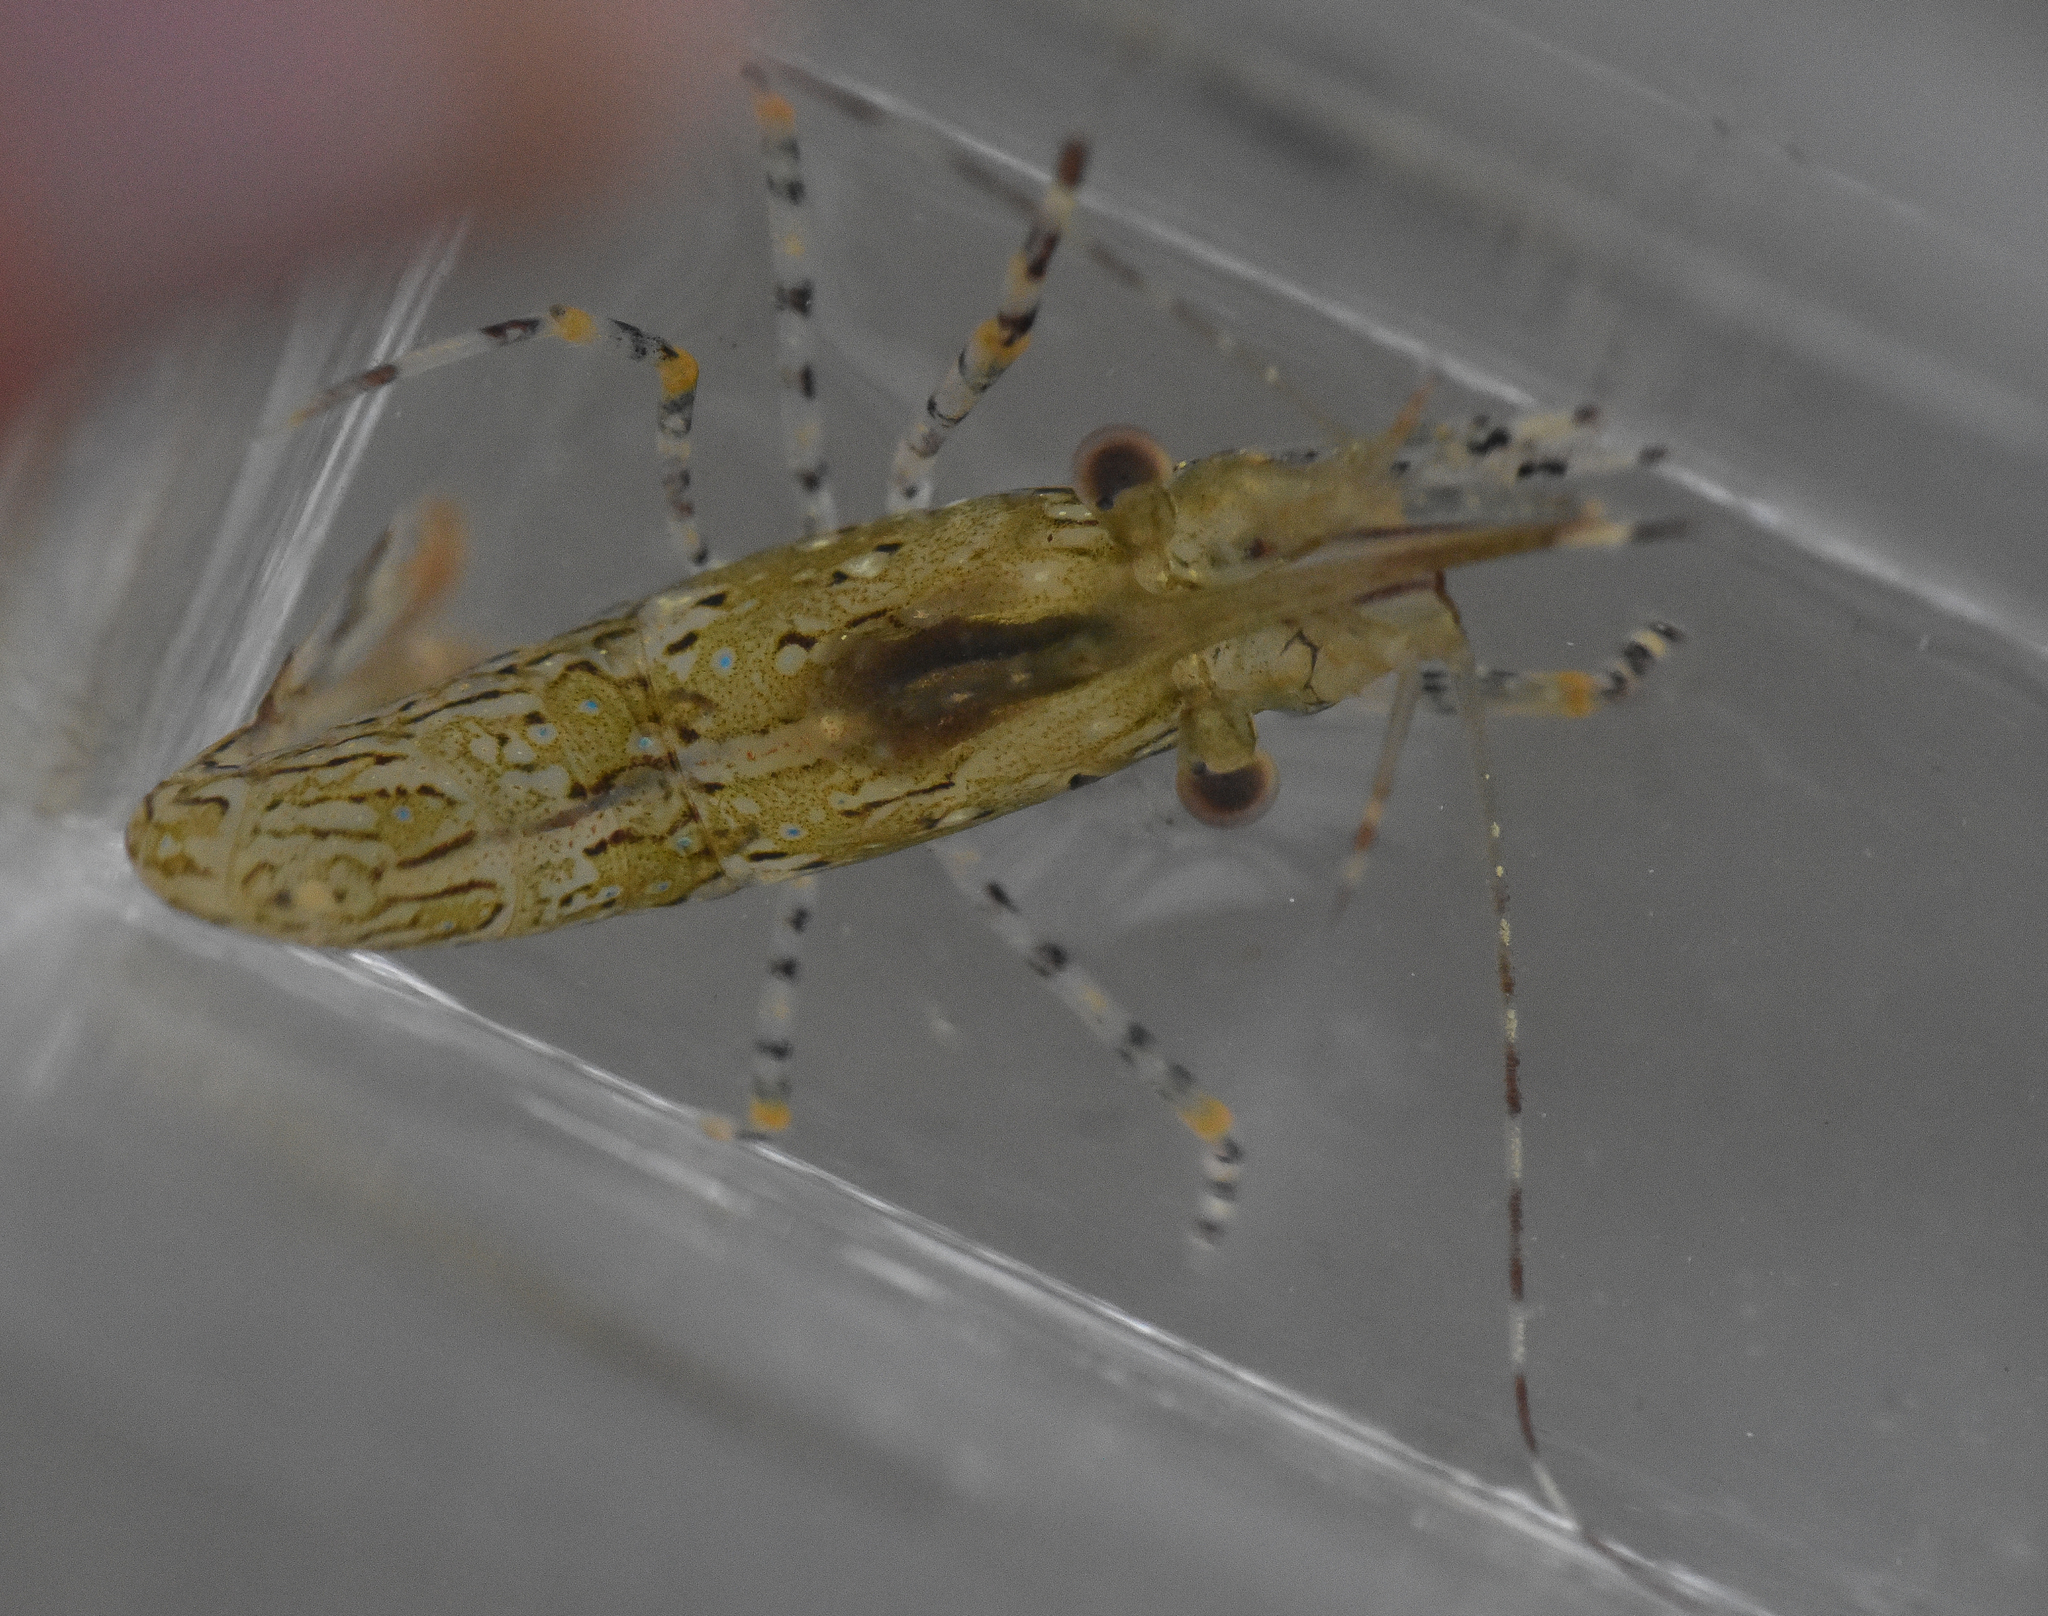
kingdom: Animalia
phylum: Arthropoda
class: Malacostraca
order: Decapoda
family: Pandalidae
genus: Pandalus
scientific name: Pandalus danae
